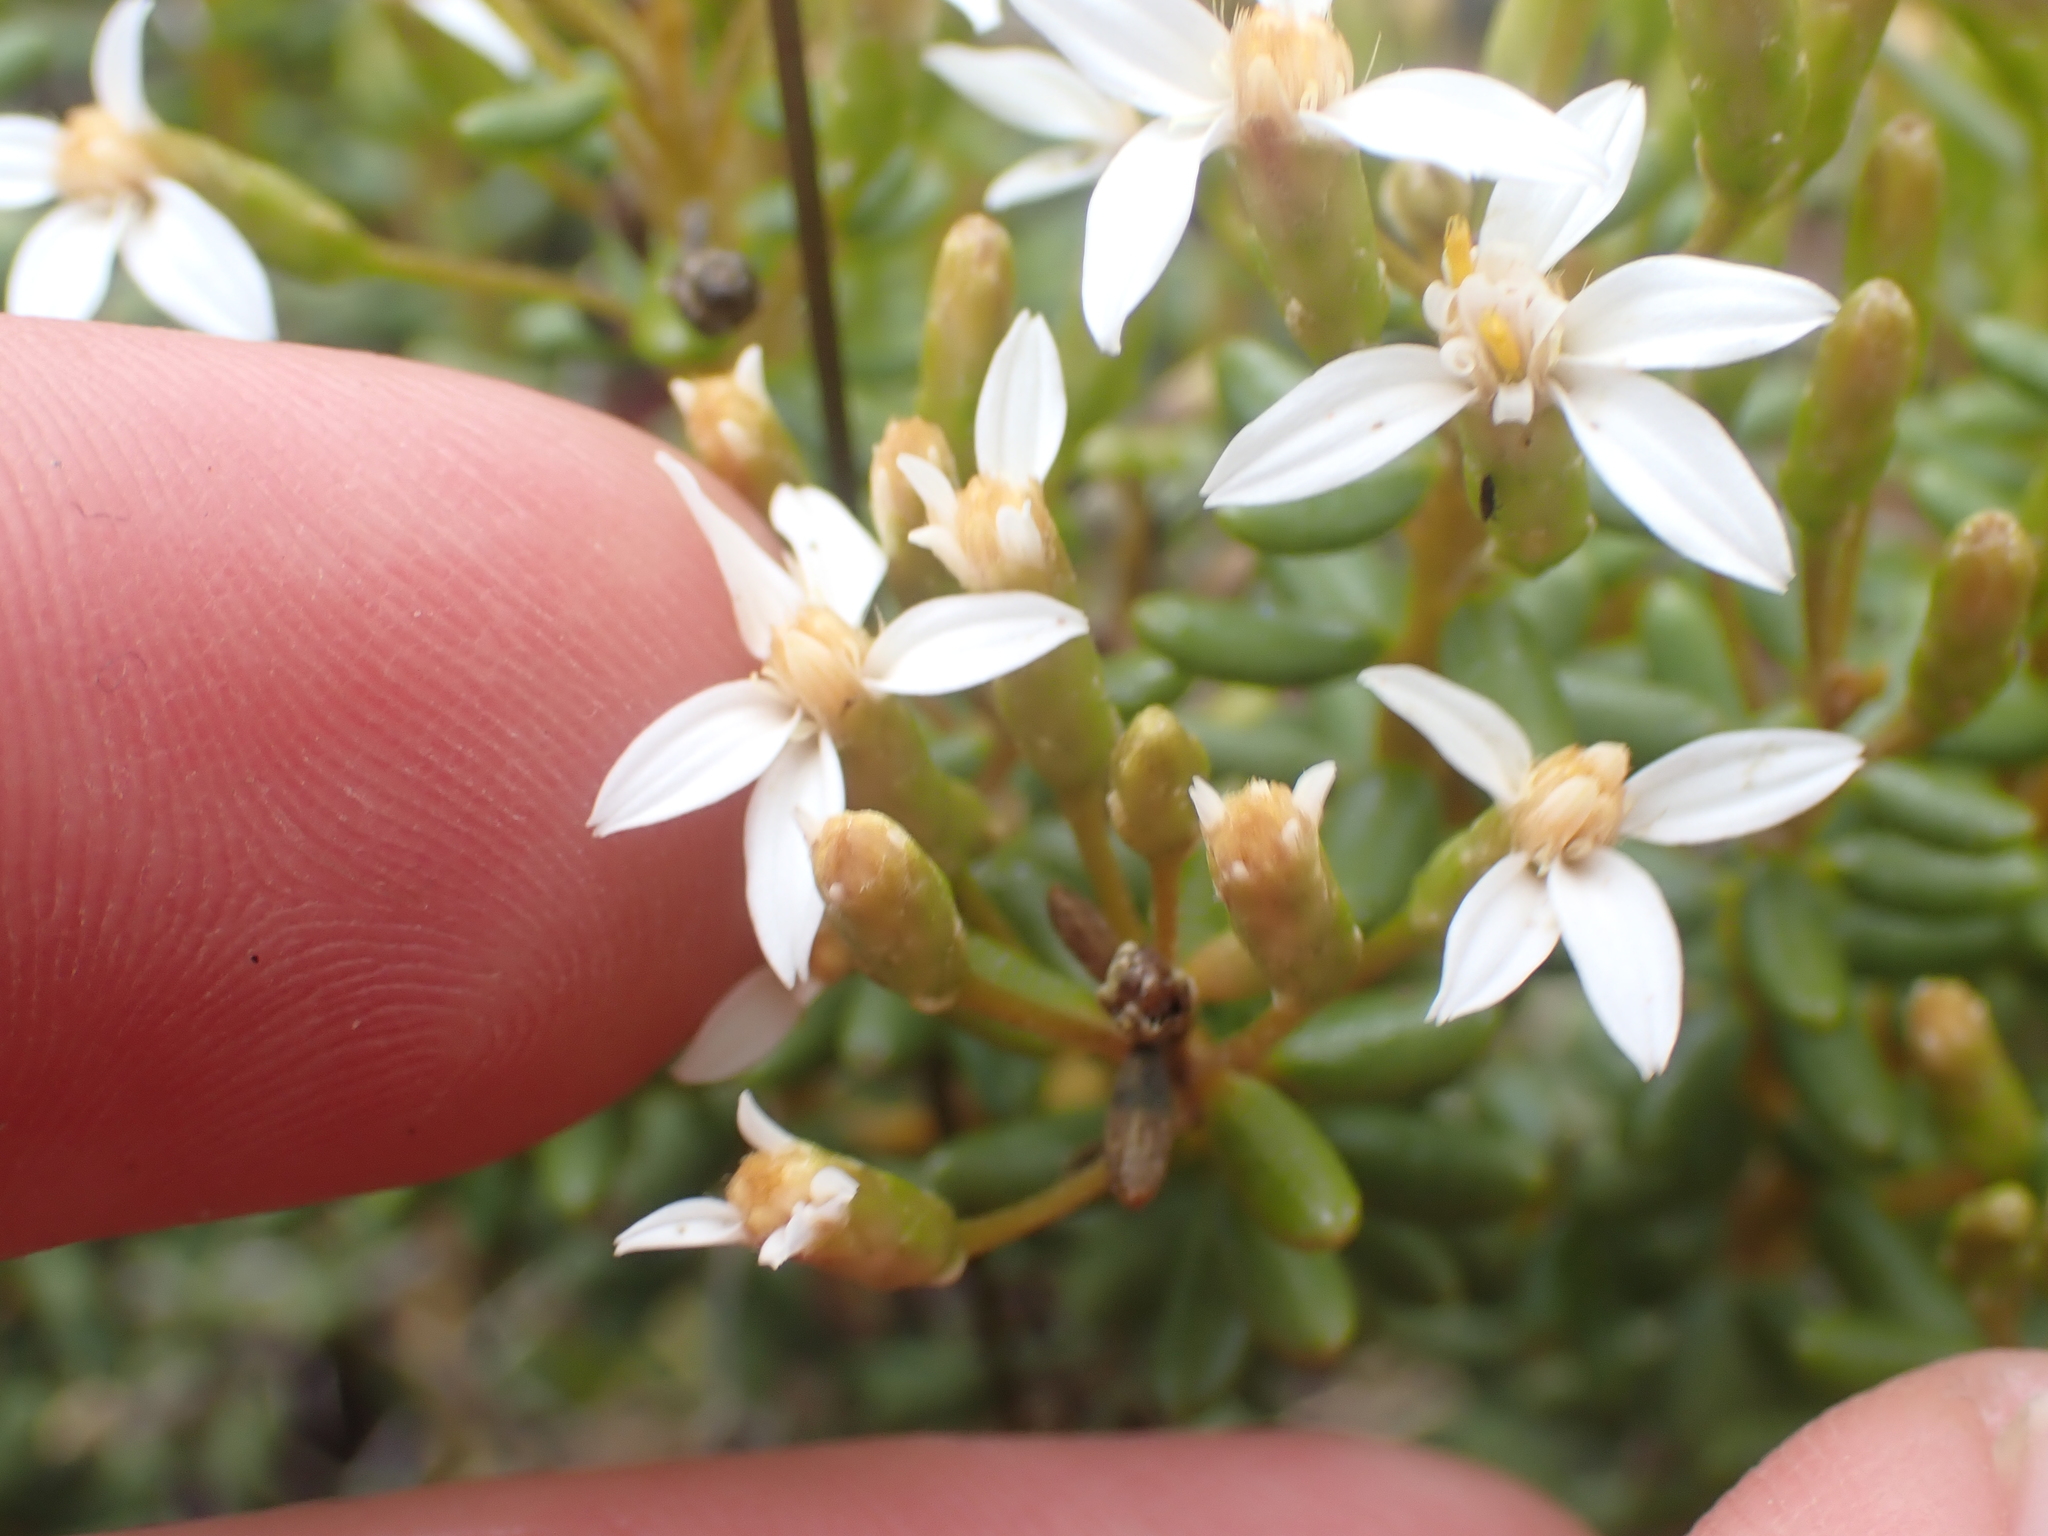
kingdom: Plantae
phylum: Tracheophyta
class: Magnoliopsida
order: Asterales
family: Asteraceae
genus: Olearia
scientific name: Olearia cymbifolia
